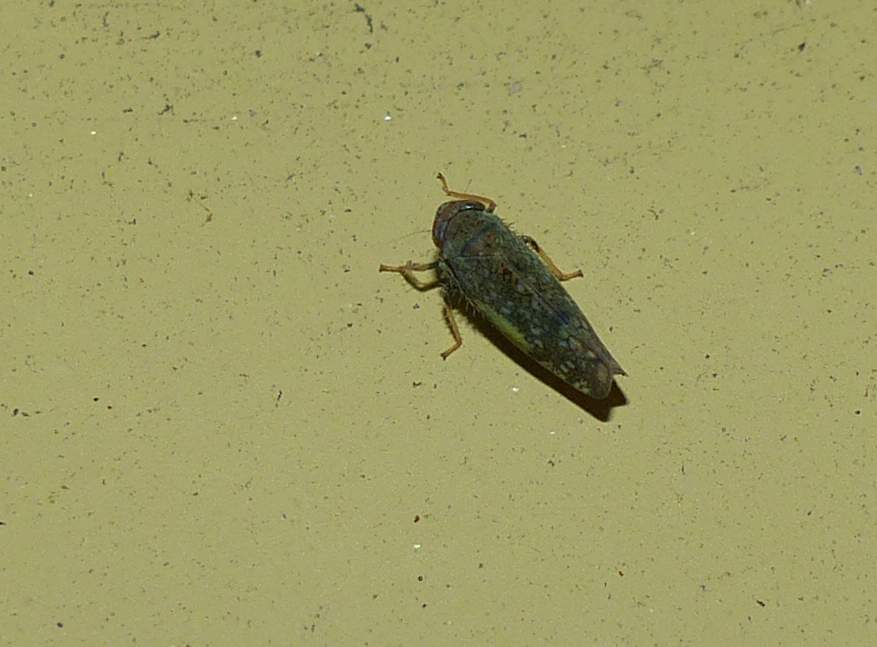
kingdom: Animalia
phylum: Arthropoda
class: Insecta
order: Hemiptera
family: Cicadellidae
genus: Orientus
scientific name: Orientus ishidae
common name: Japanese leafhopper
